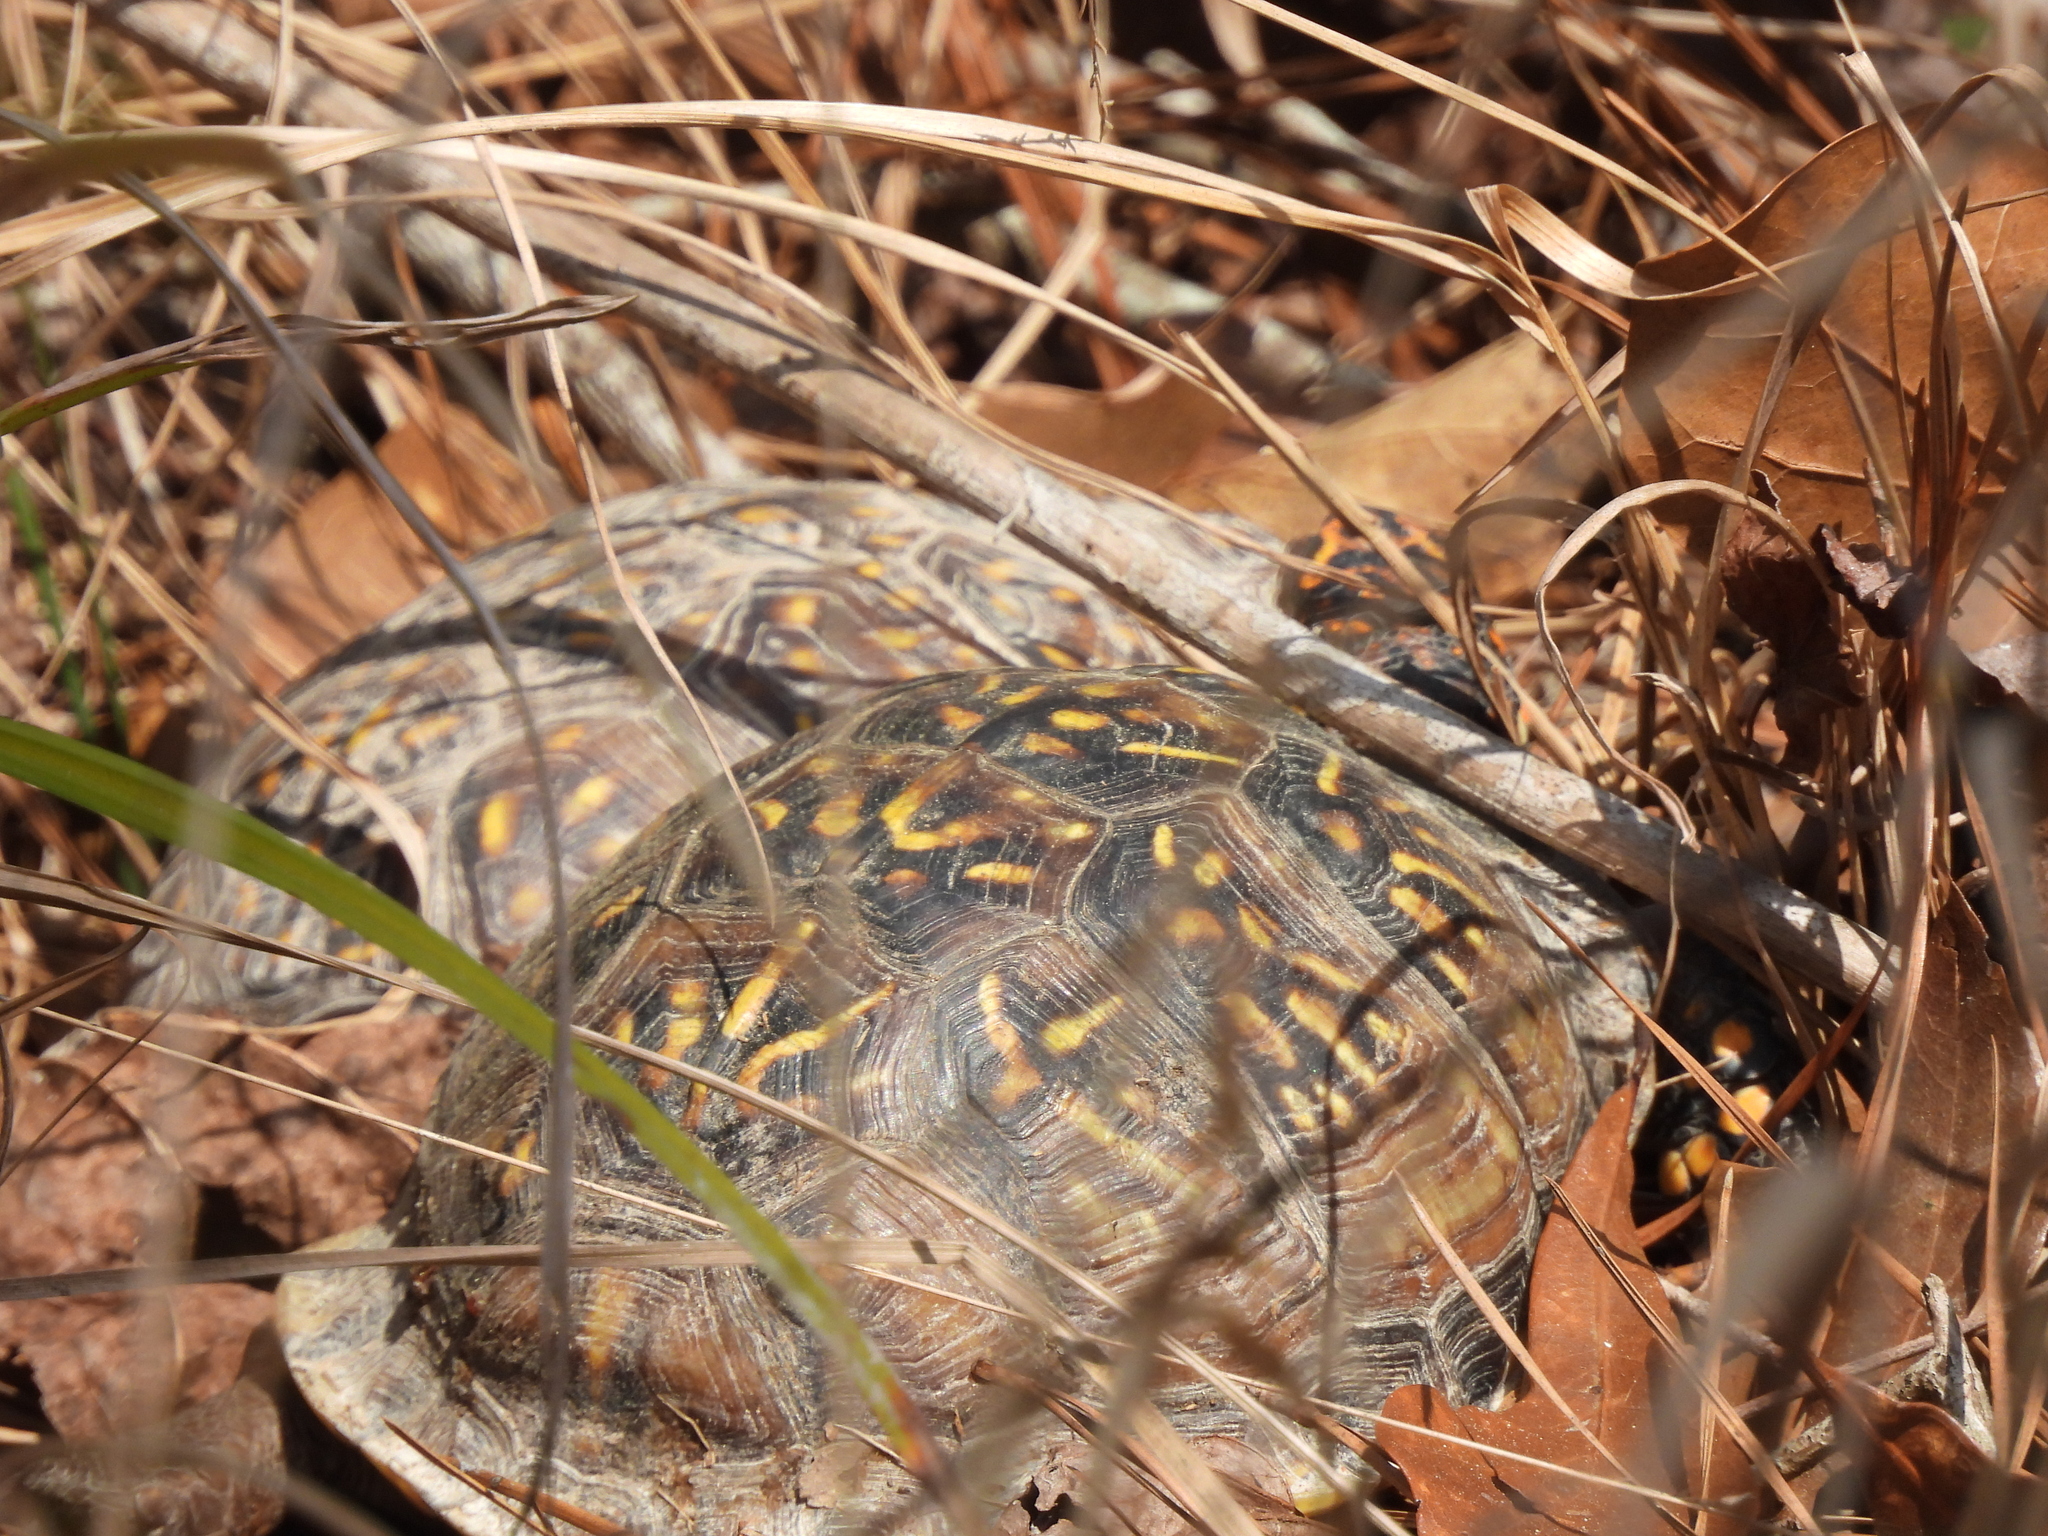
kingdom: Animalia
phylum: Chordata
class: Testudines
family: Emydidae
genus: Terrapene
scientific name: Terrapene carolina
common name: Common box turtle
